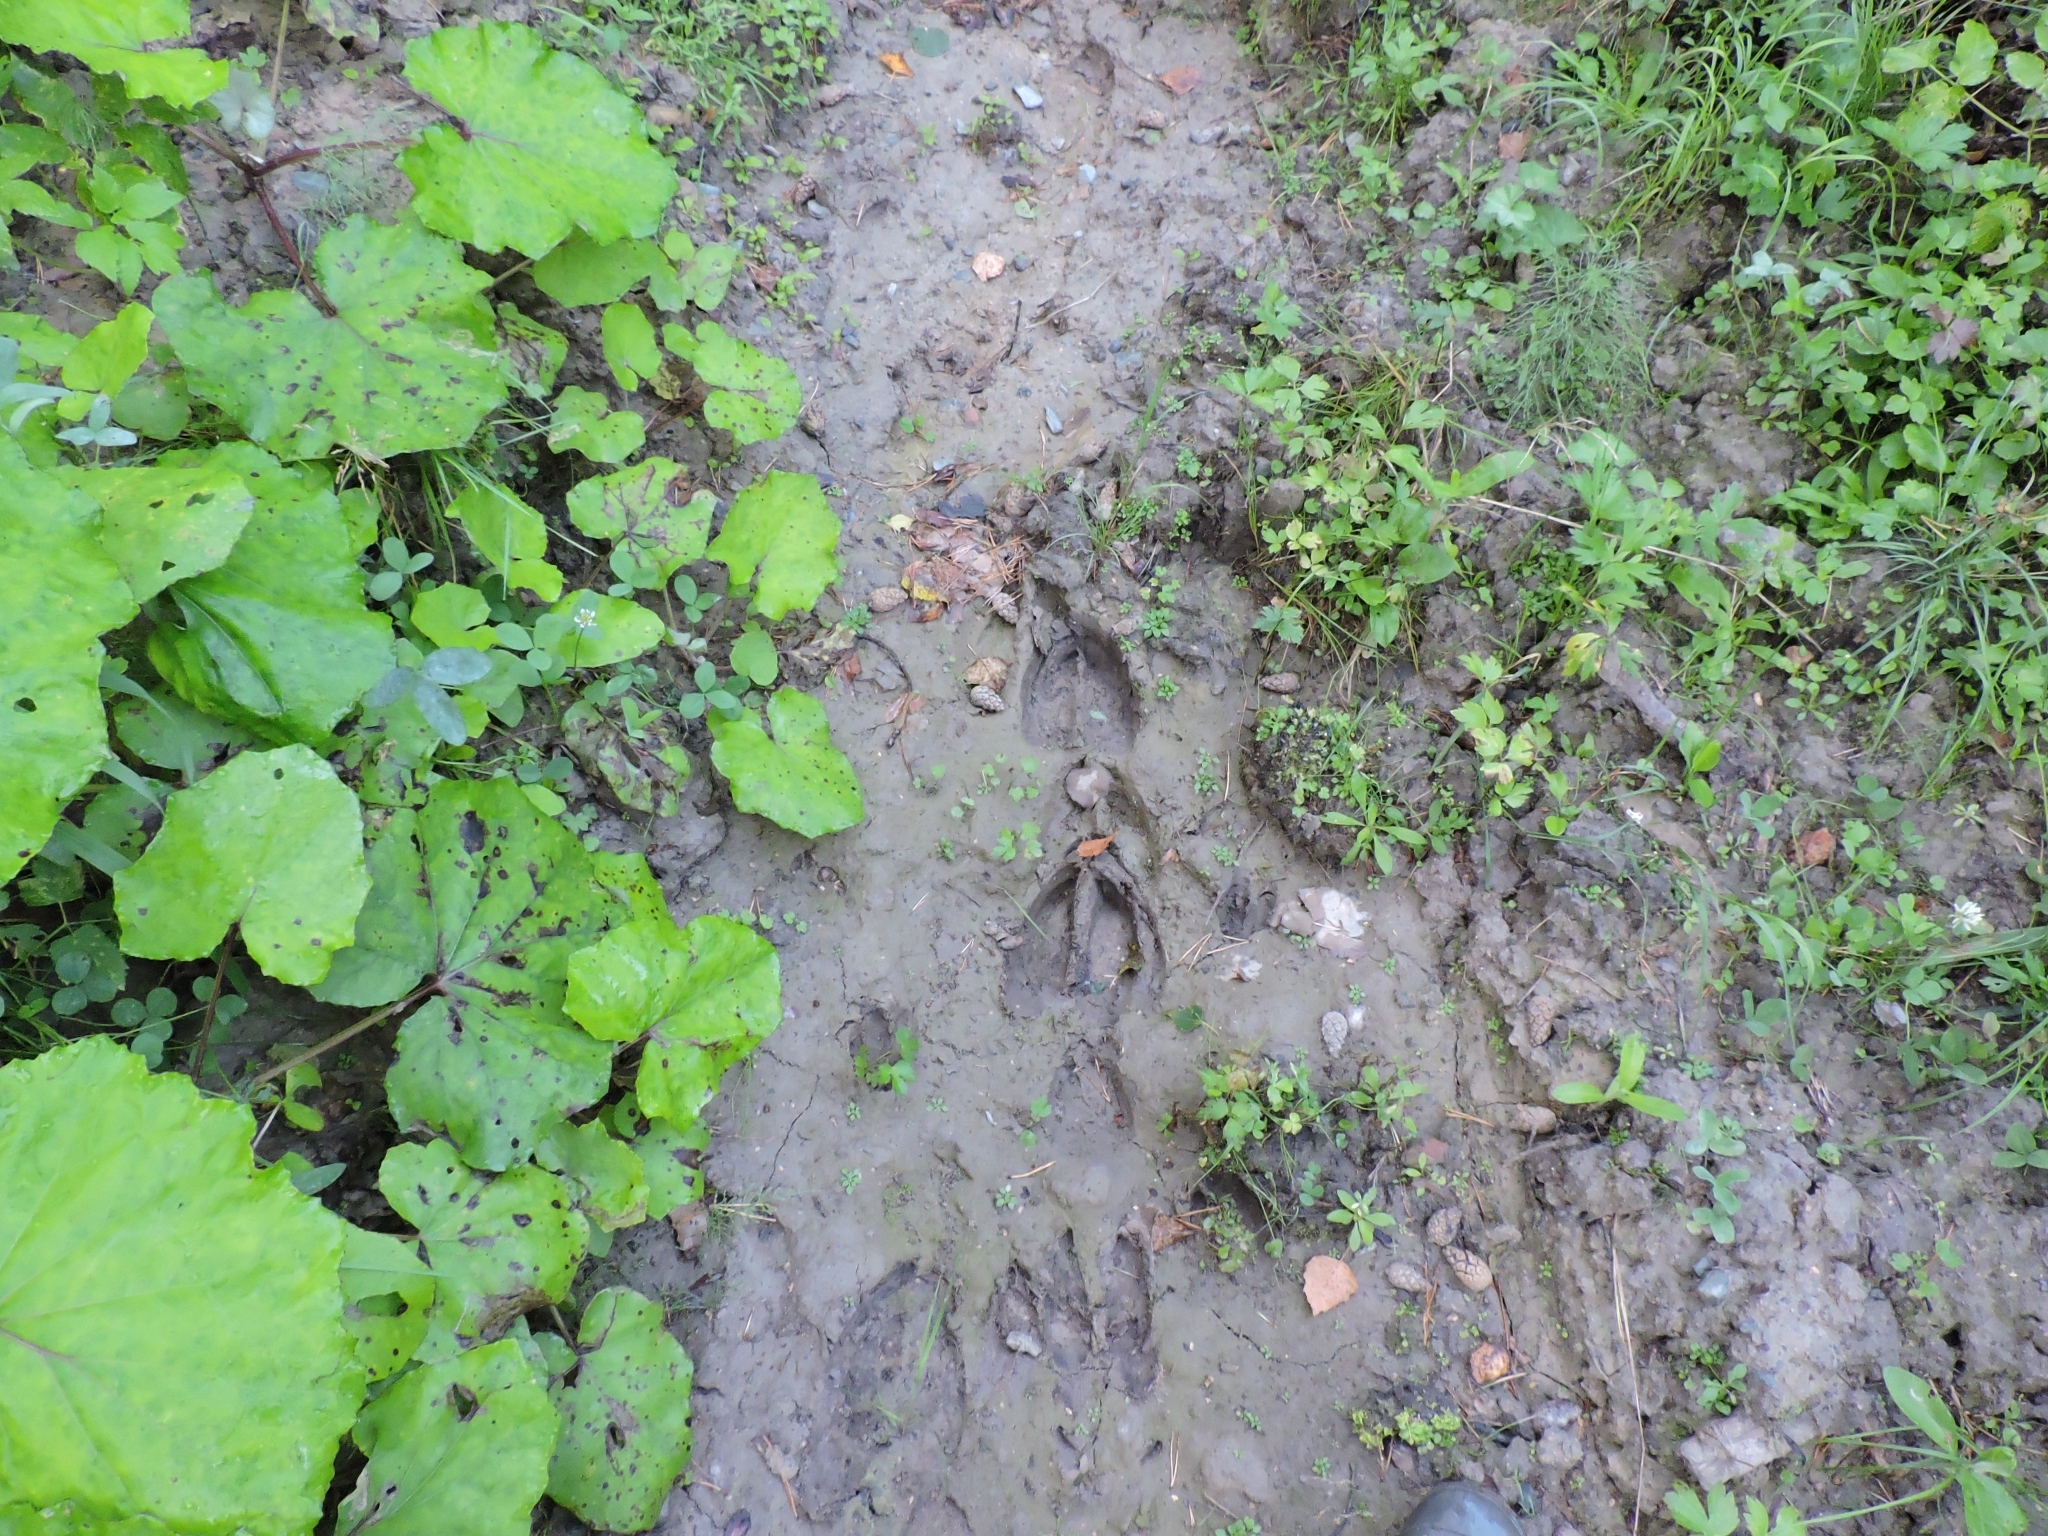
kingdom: Animalia
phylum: Chordata
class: Mammalia
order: Artiodactyla
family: Cervidae
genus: Alces
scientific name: Alces alces
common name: Moose
